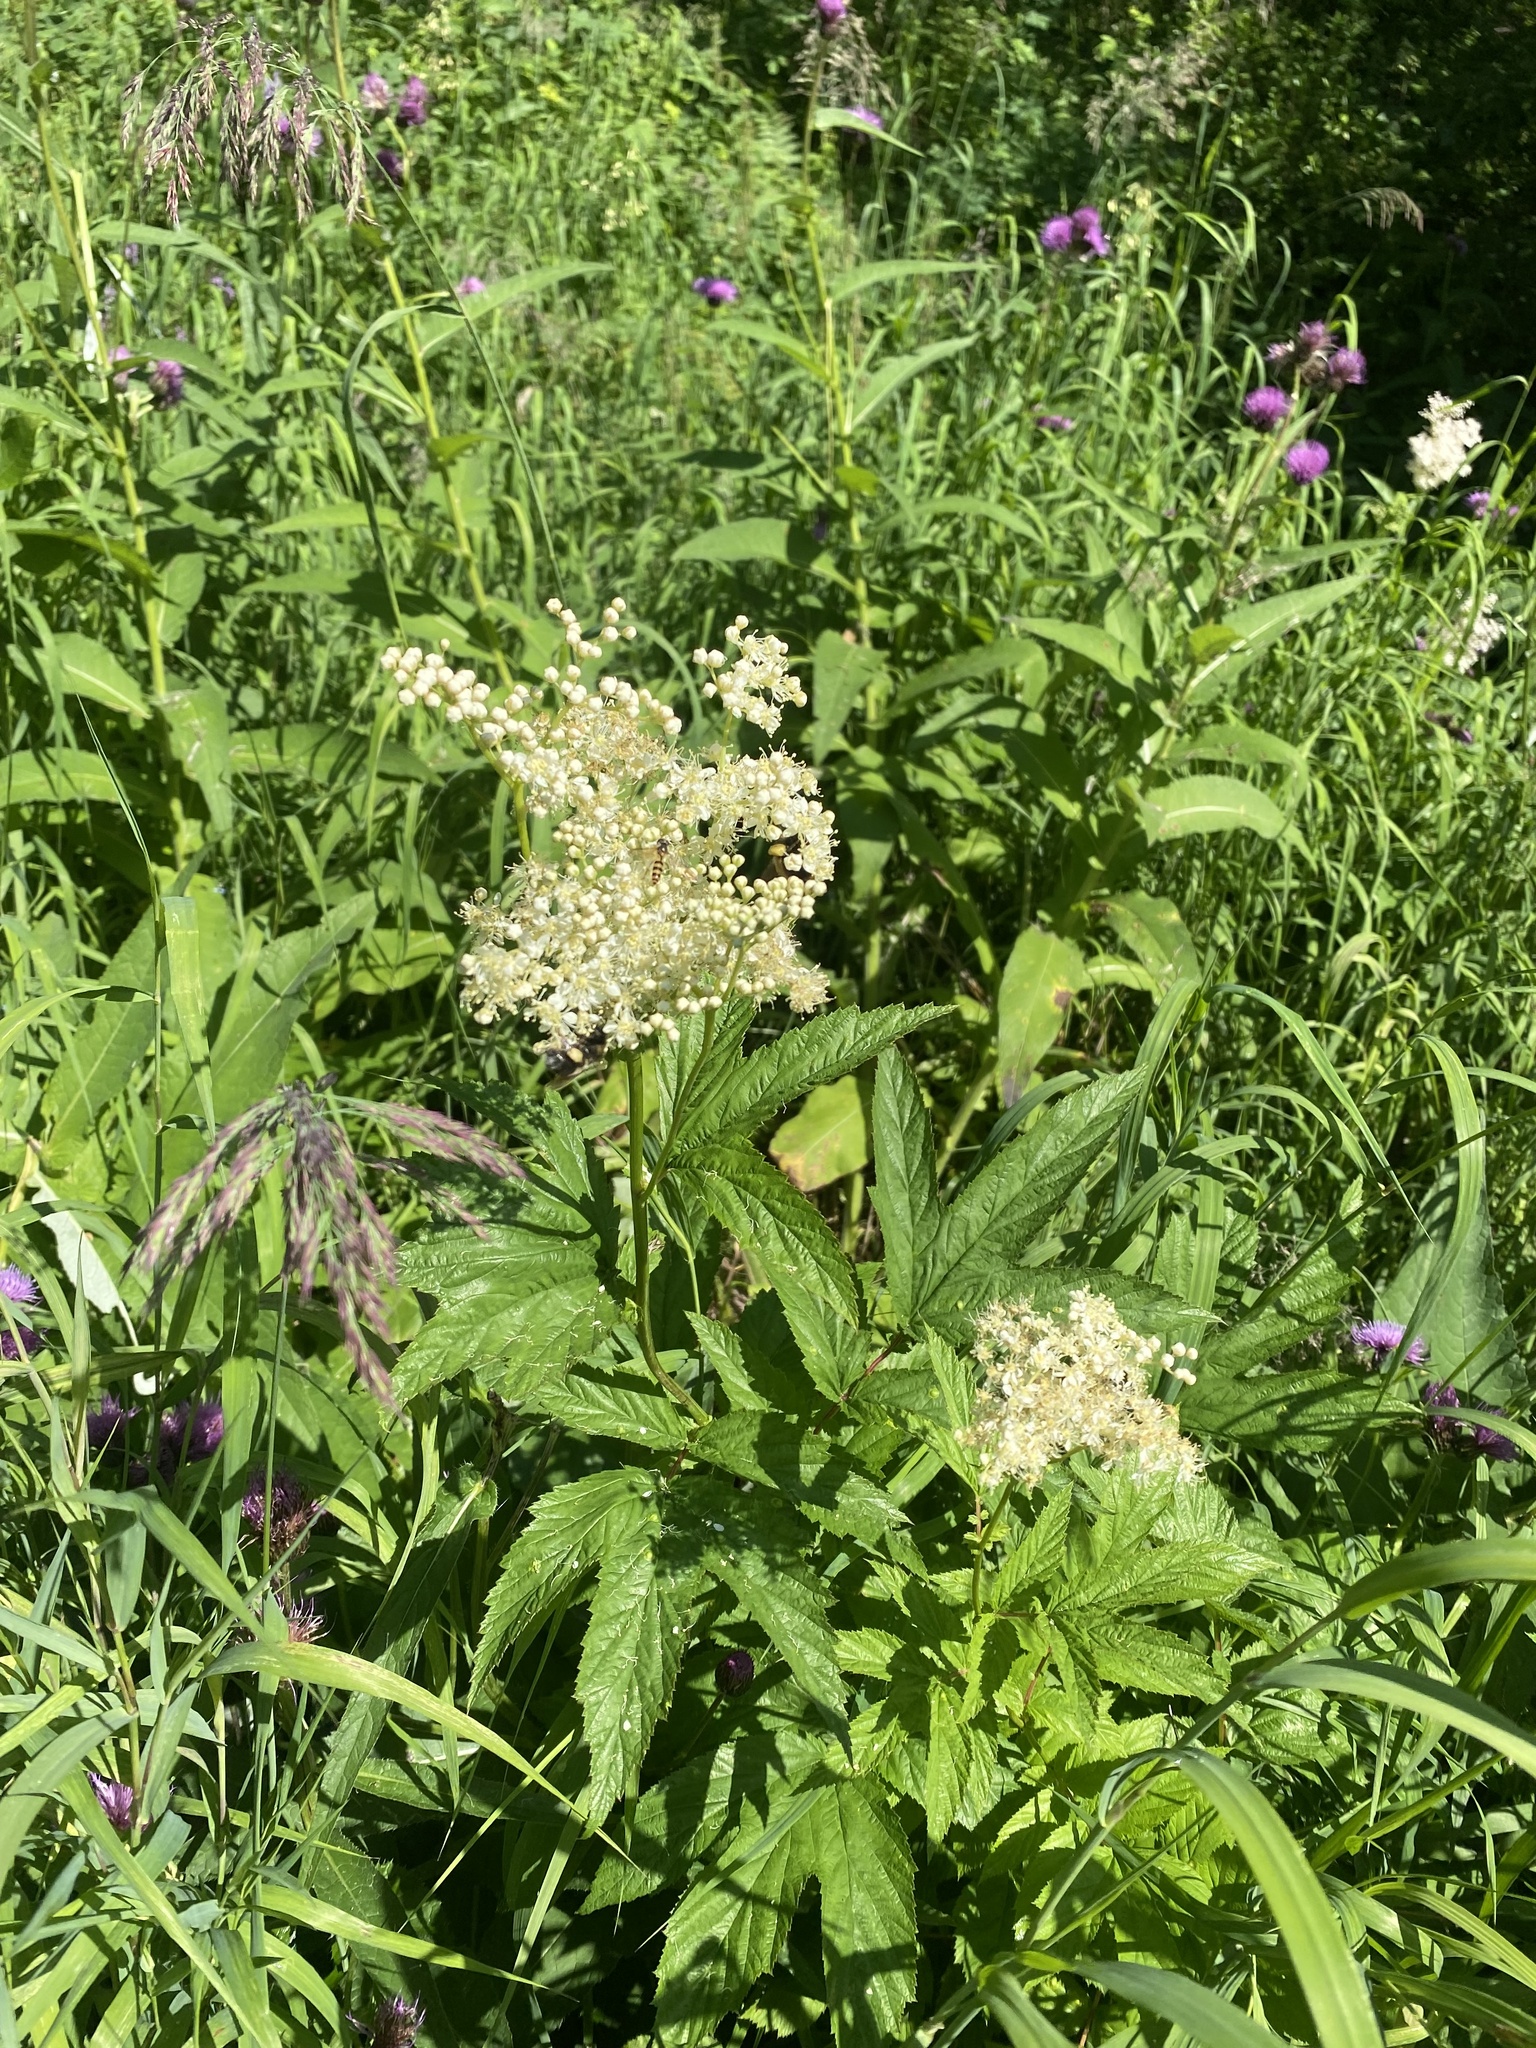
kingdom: Plantae
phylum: Tracheophyta
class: Magnoliopsida
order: Rosales
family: Rosaceae
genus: Filipendula
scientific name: Filipendula ulmaria
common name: Meadowsweet
